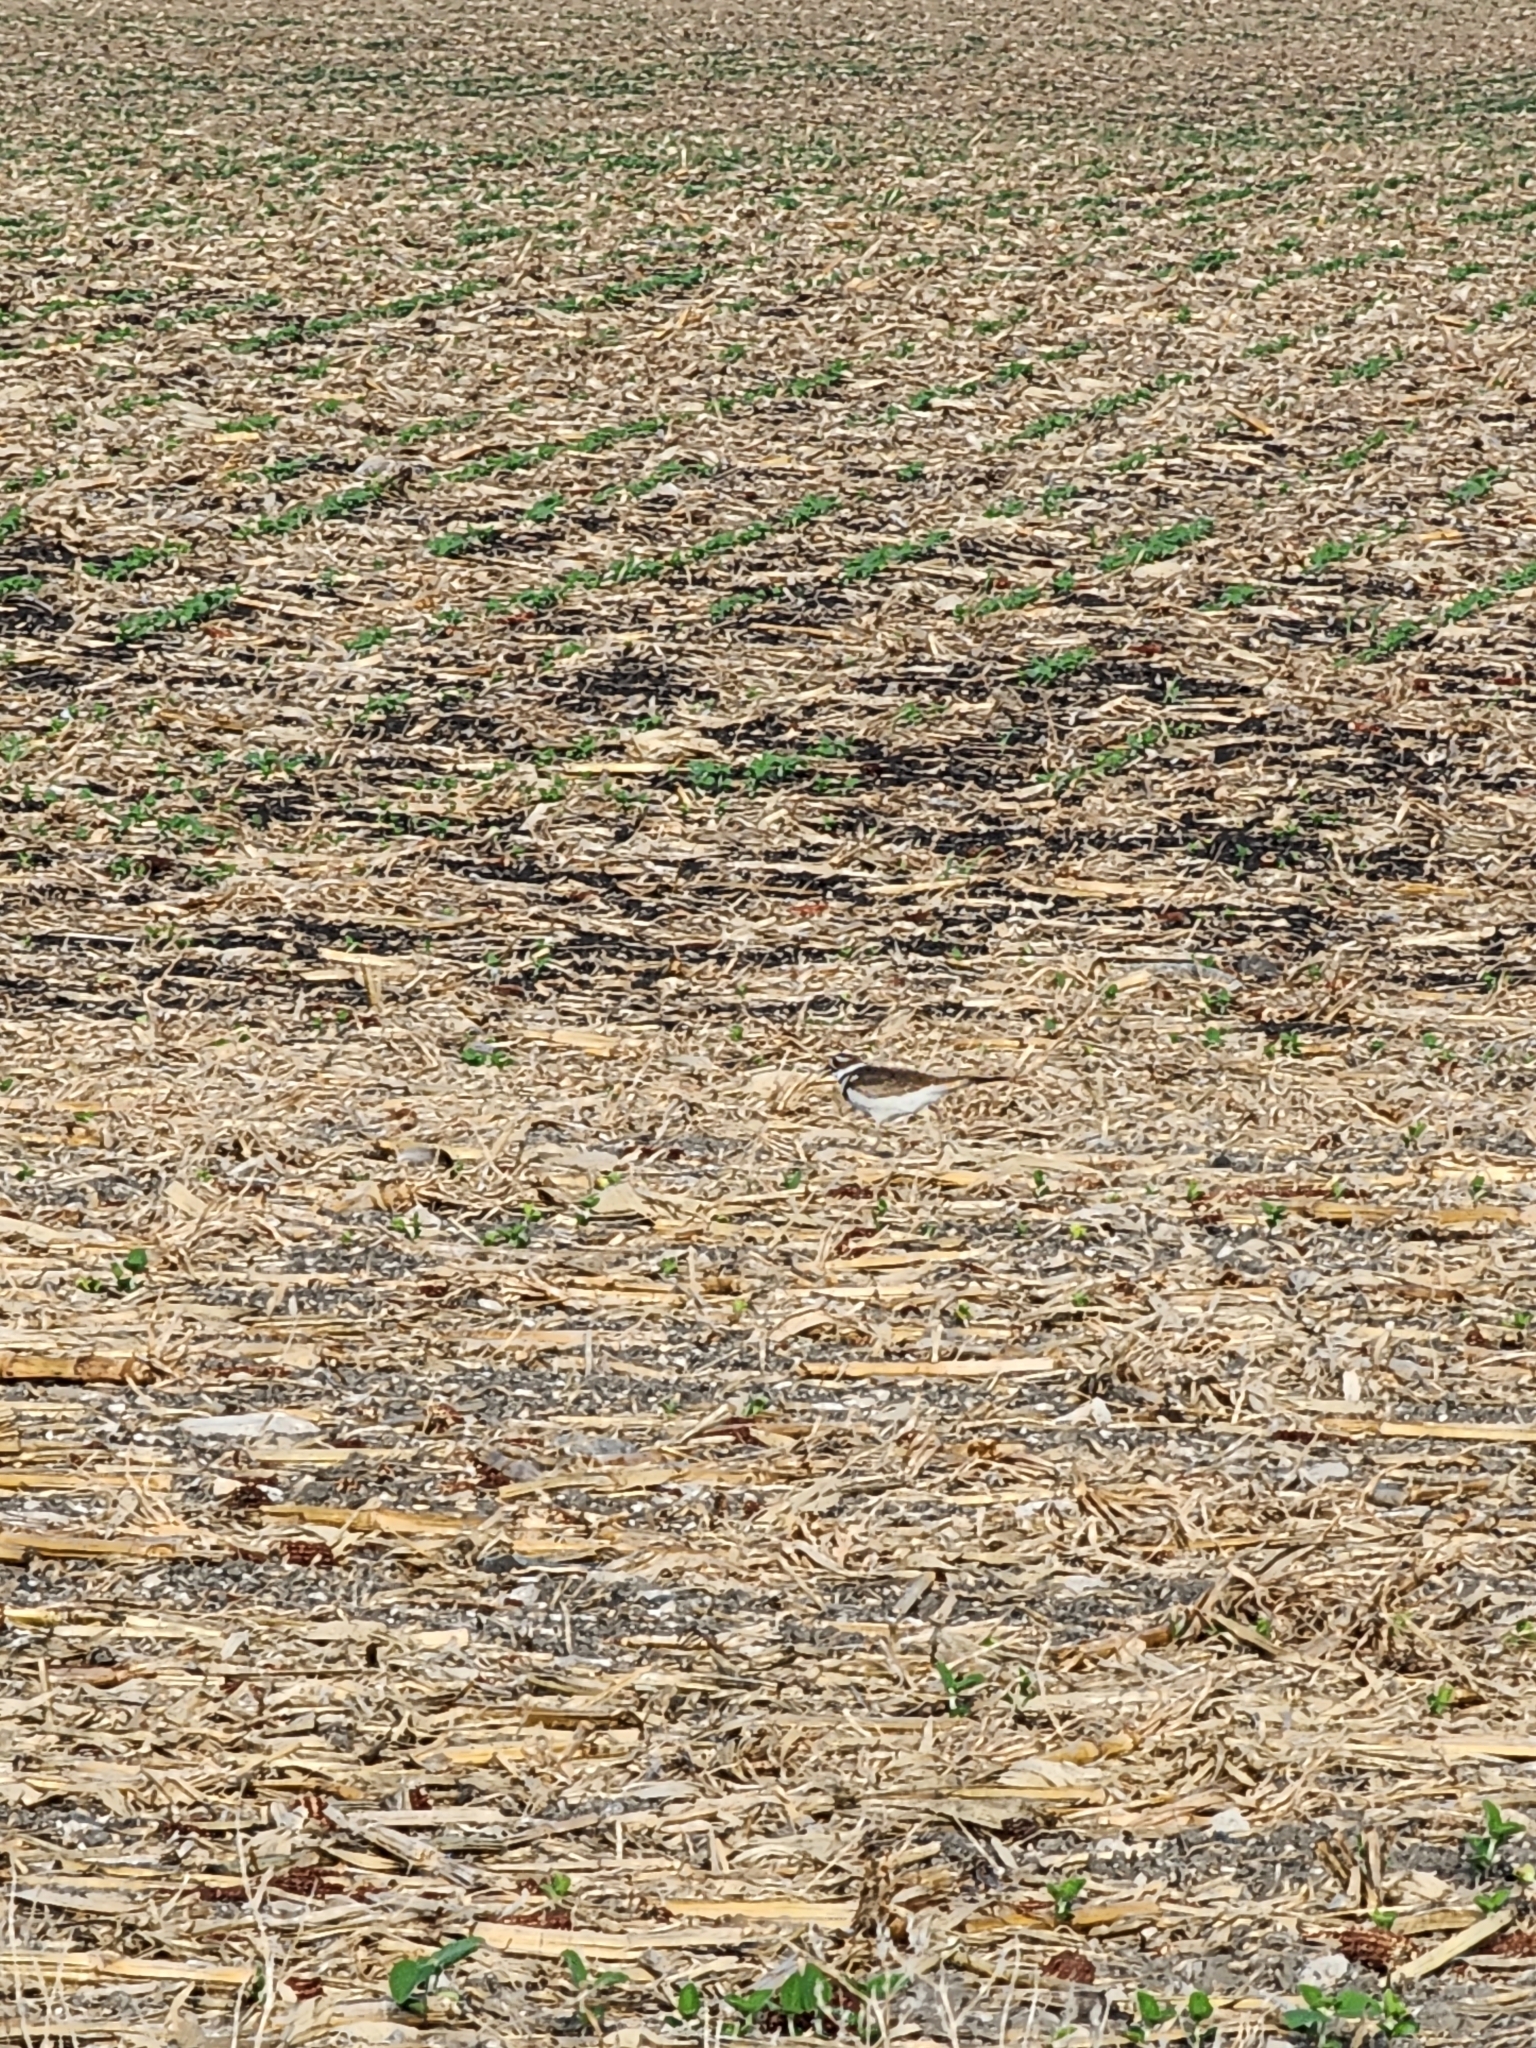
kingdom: Animalia
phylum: Chordata
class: Aves
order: Charadriiformes
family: Charadriidae
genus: Charadrius
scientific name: Charadrius vociferus
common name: Killdeer
